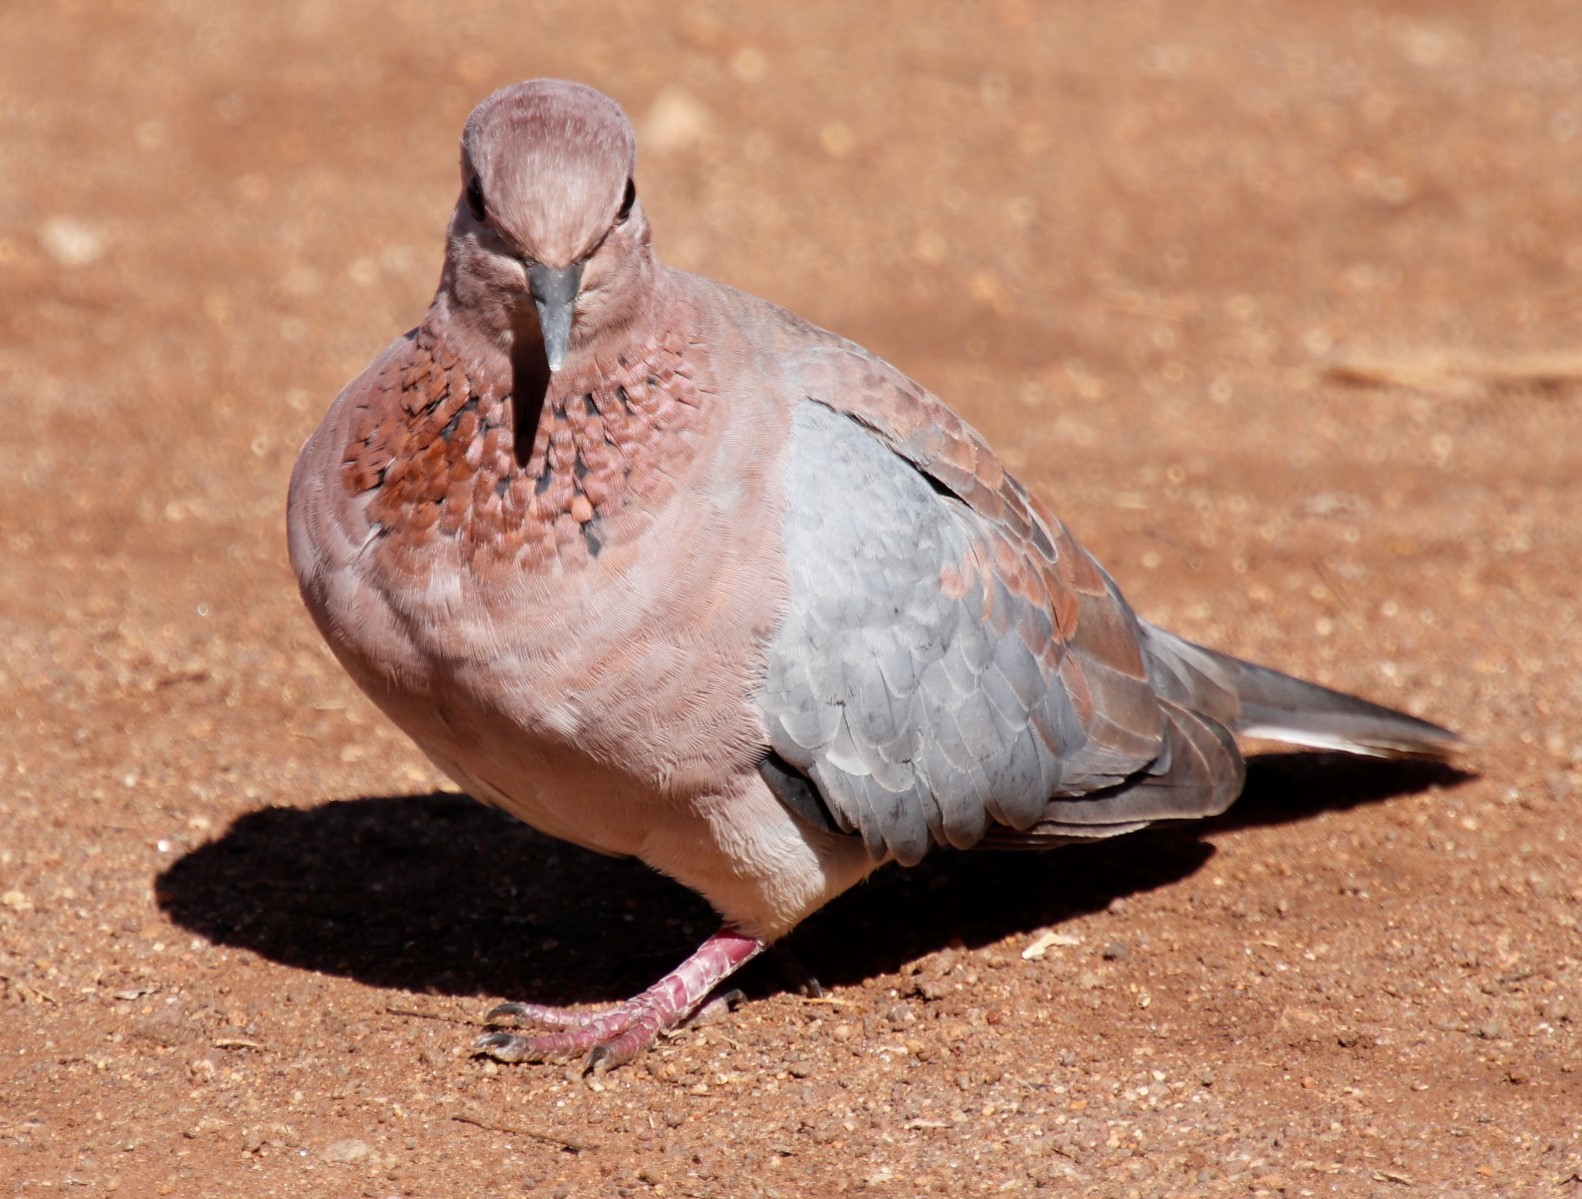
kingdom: Animalia
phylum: Chordata
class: Aves
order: Columbiformes
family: Columbidae
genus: Spilopelia
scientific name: Spilopelia senegalensis
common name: Laughing dove
